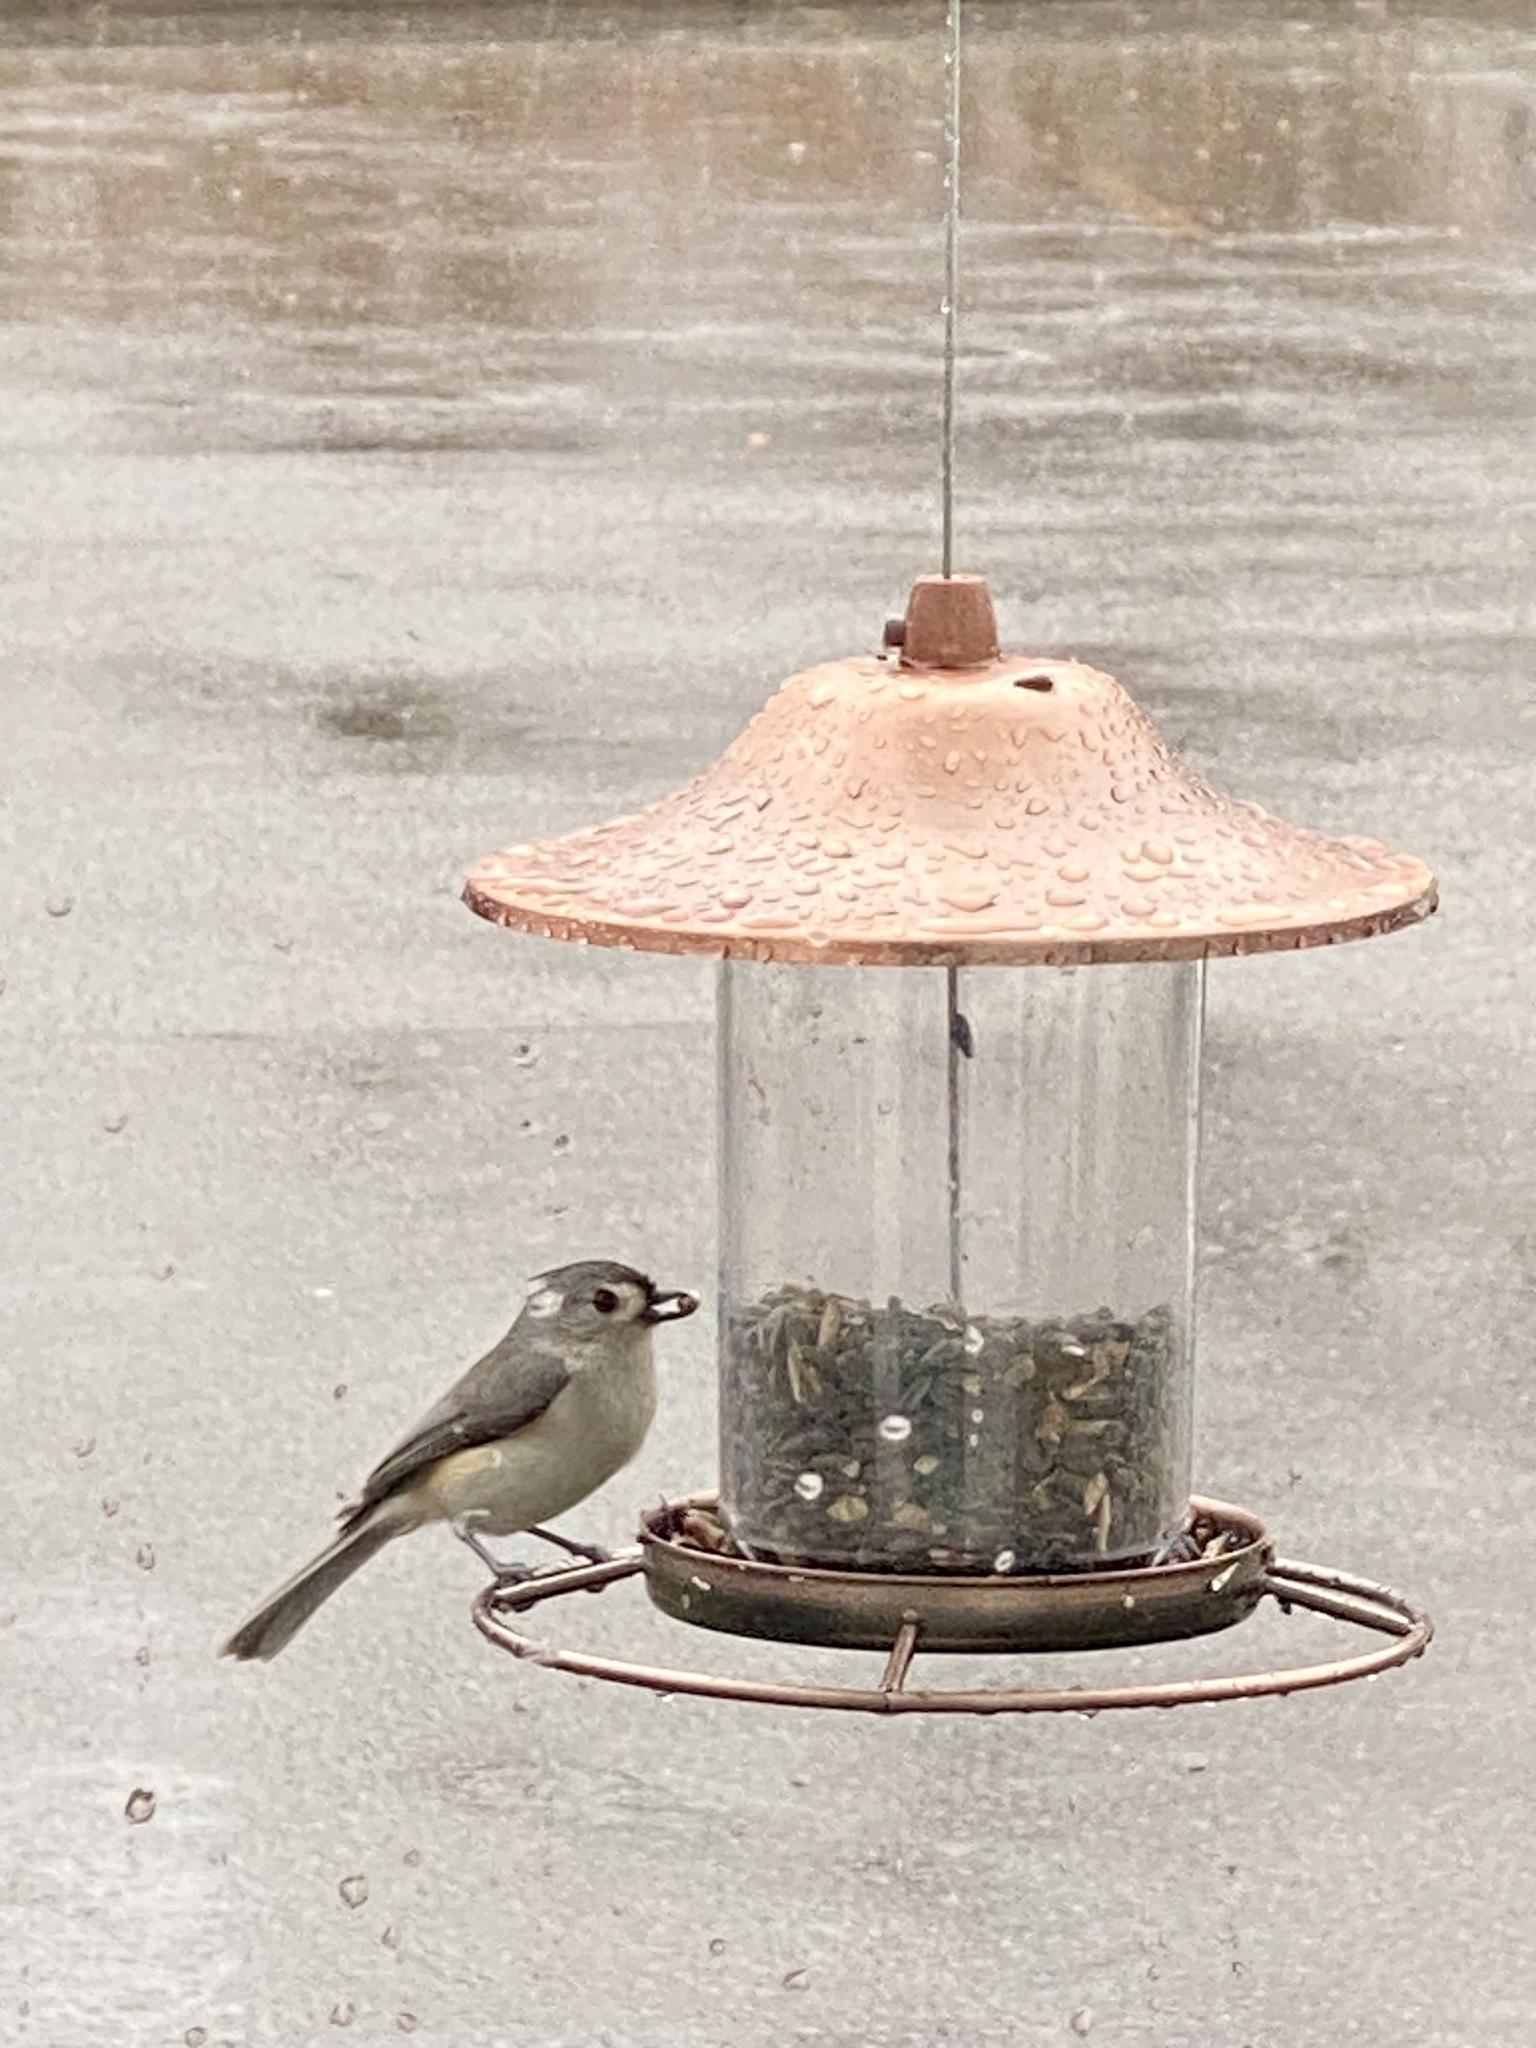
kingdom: Animalia
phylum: Chordata
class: Aves
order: Passeriformes
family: Paridae
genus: Baeolophus
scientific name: Baeolophus bicolor
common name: Tufted titmouse
